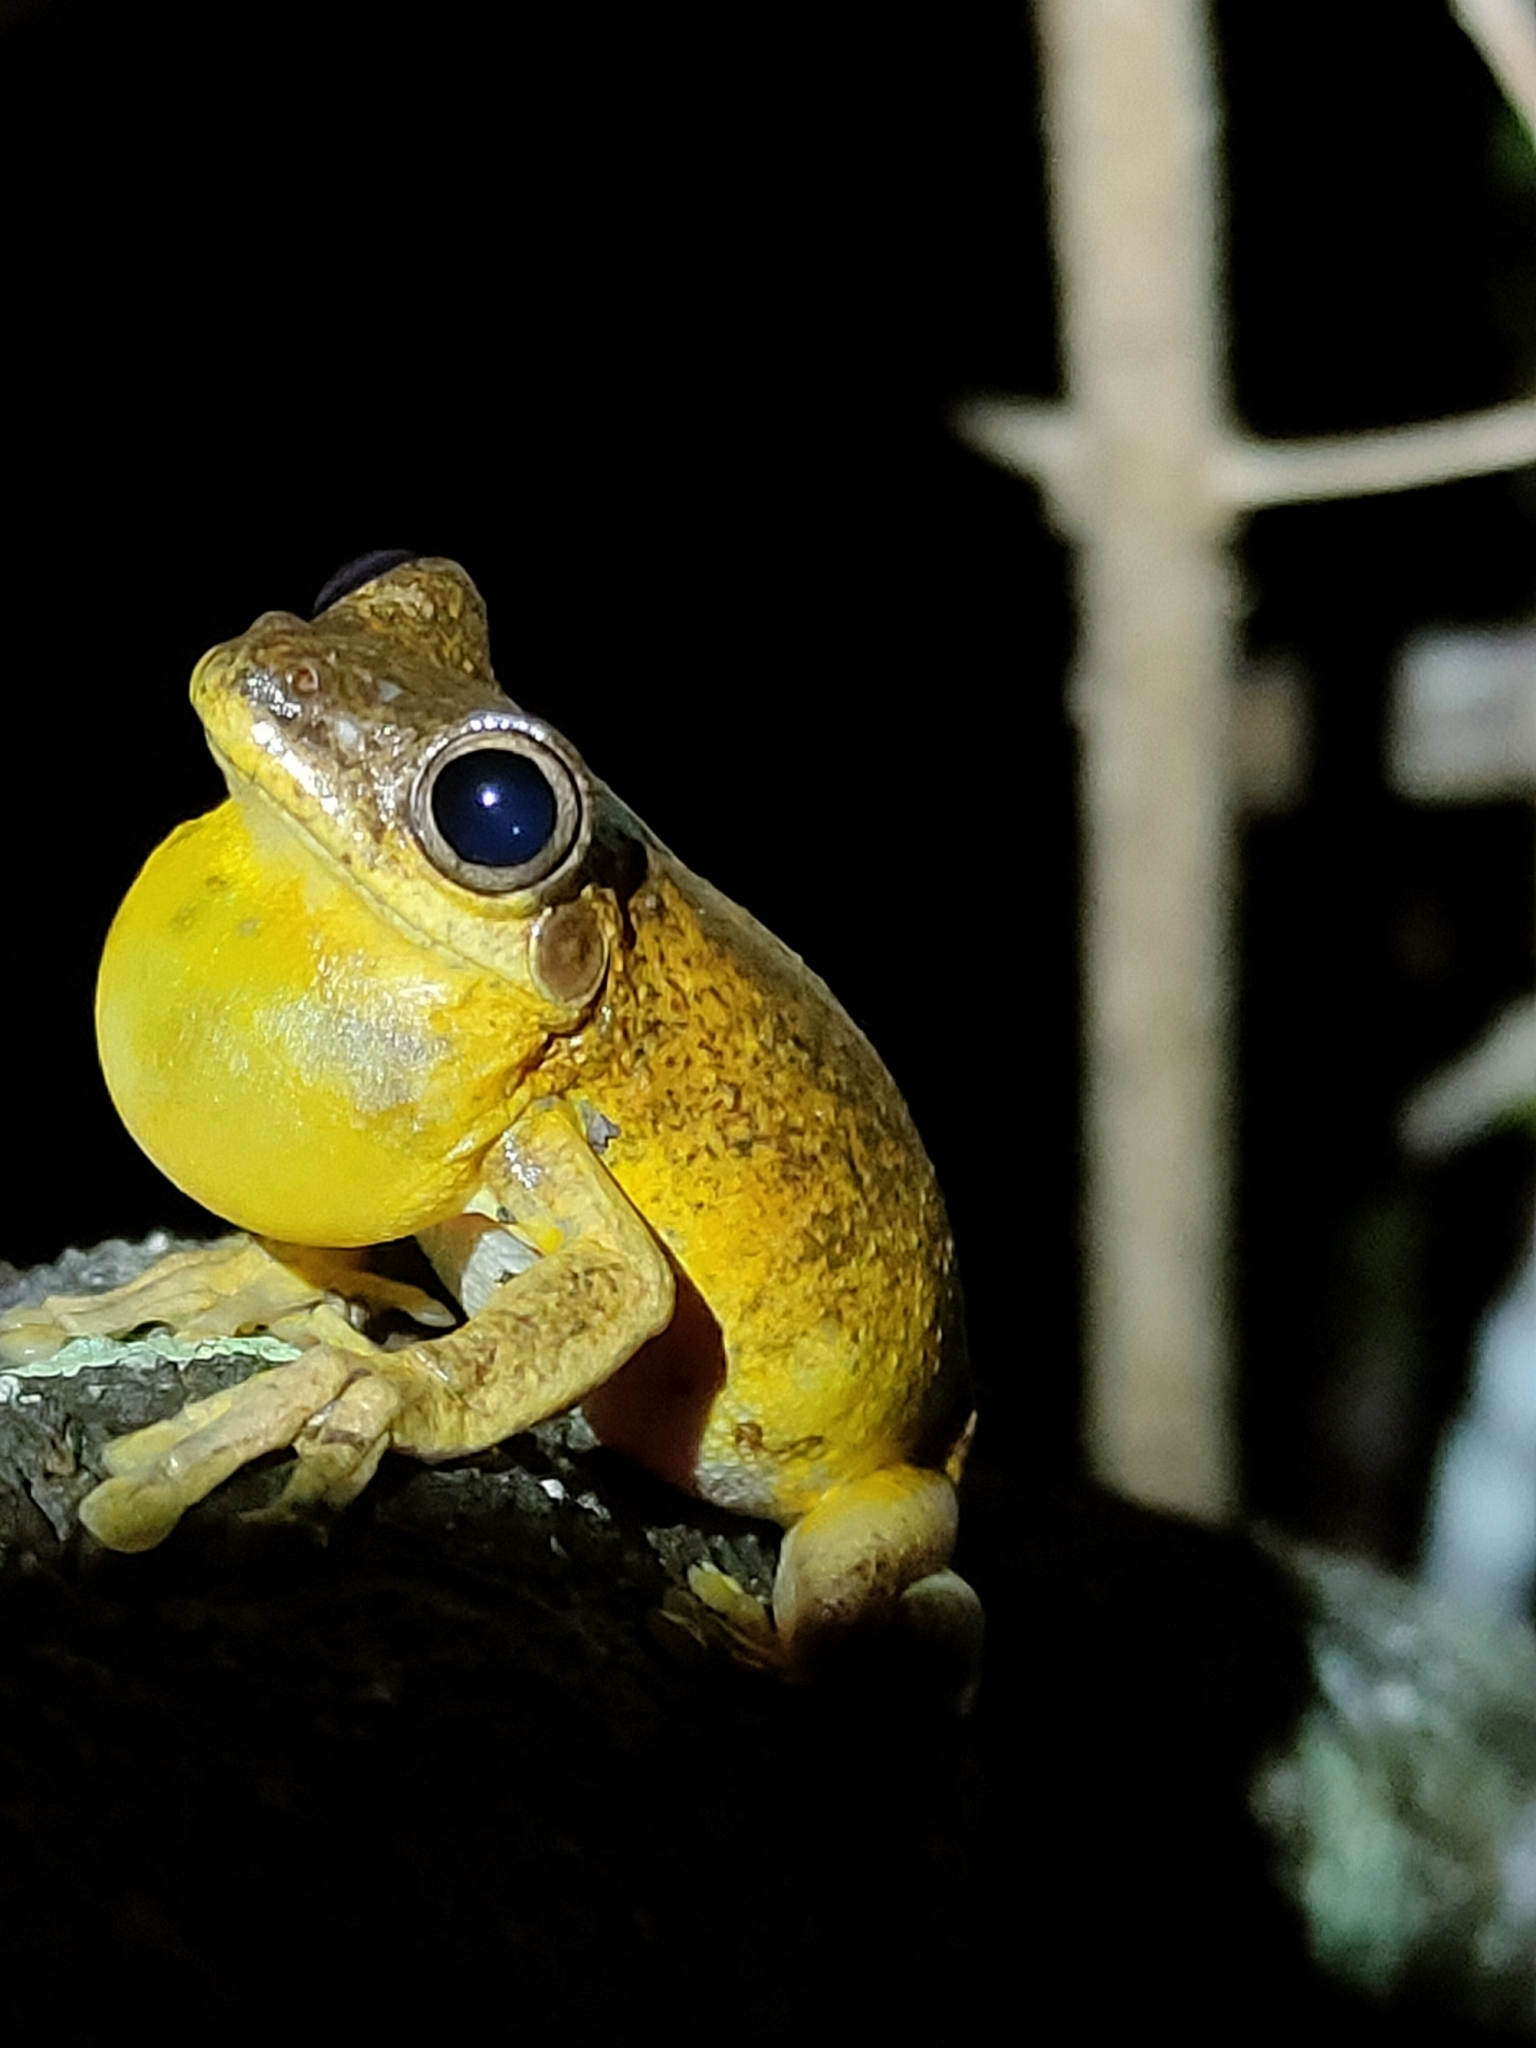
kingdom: Animalia
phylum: Chordata
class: Amphibia
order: Anura
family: Pelodryadidae
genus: Litoria
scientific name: Litoria tyleri
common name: Laughing tree frog
